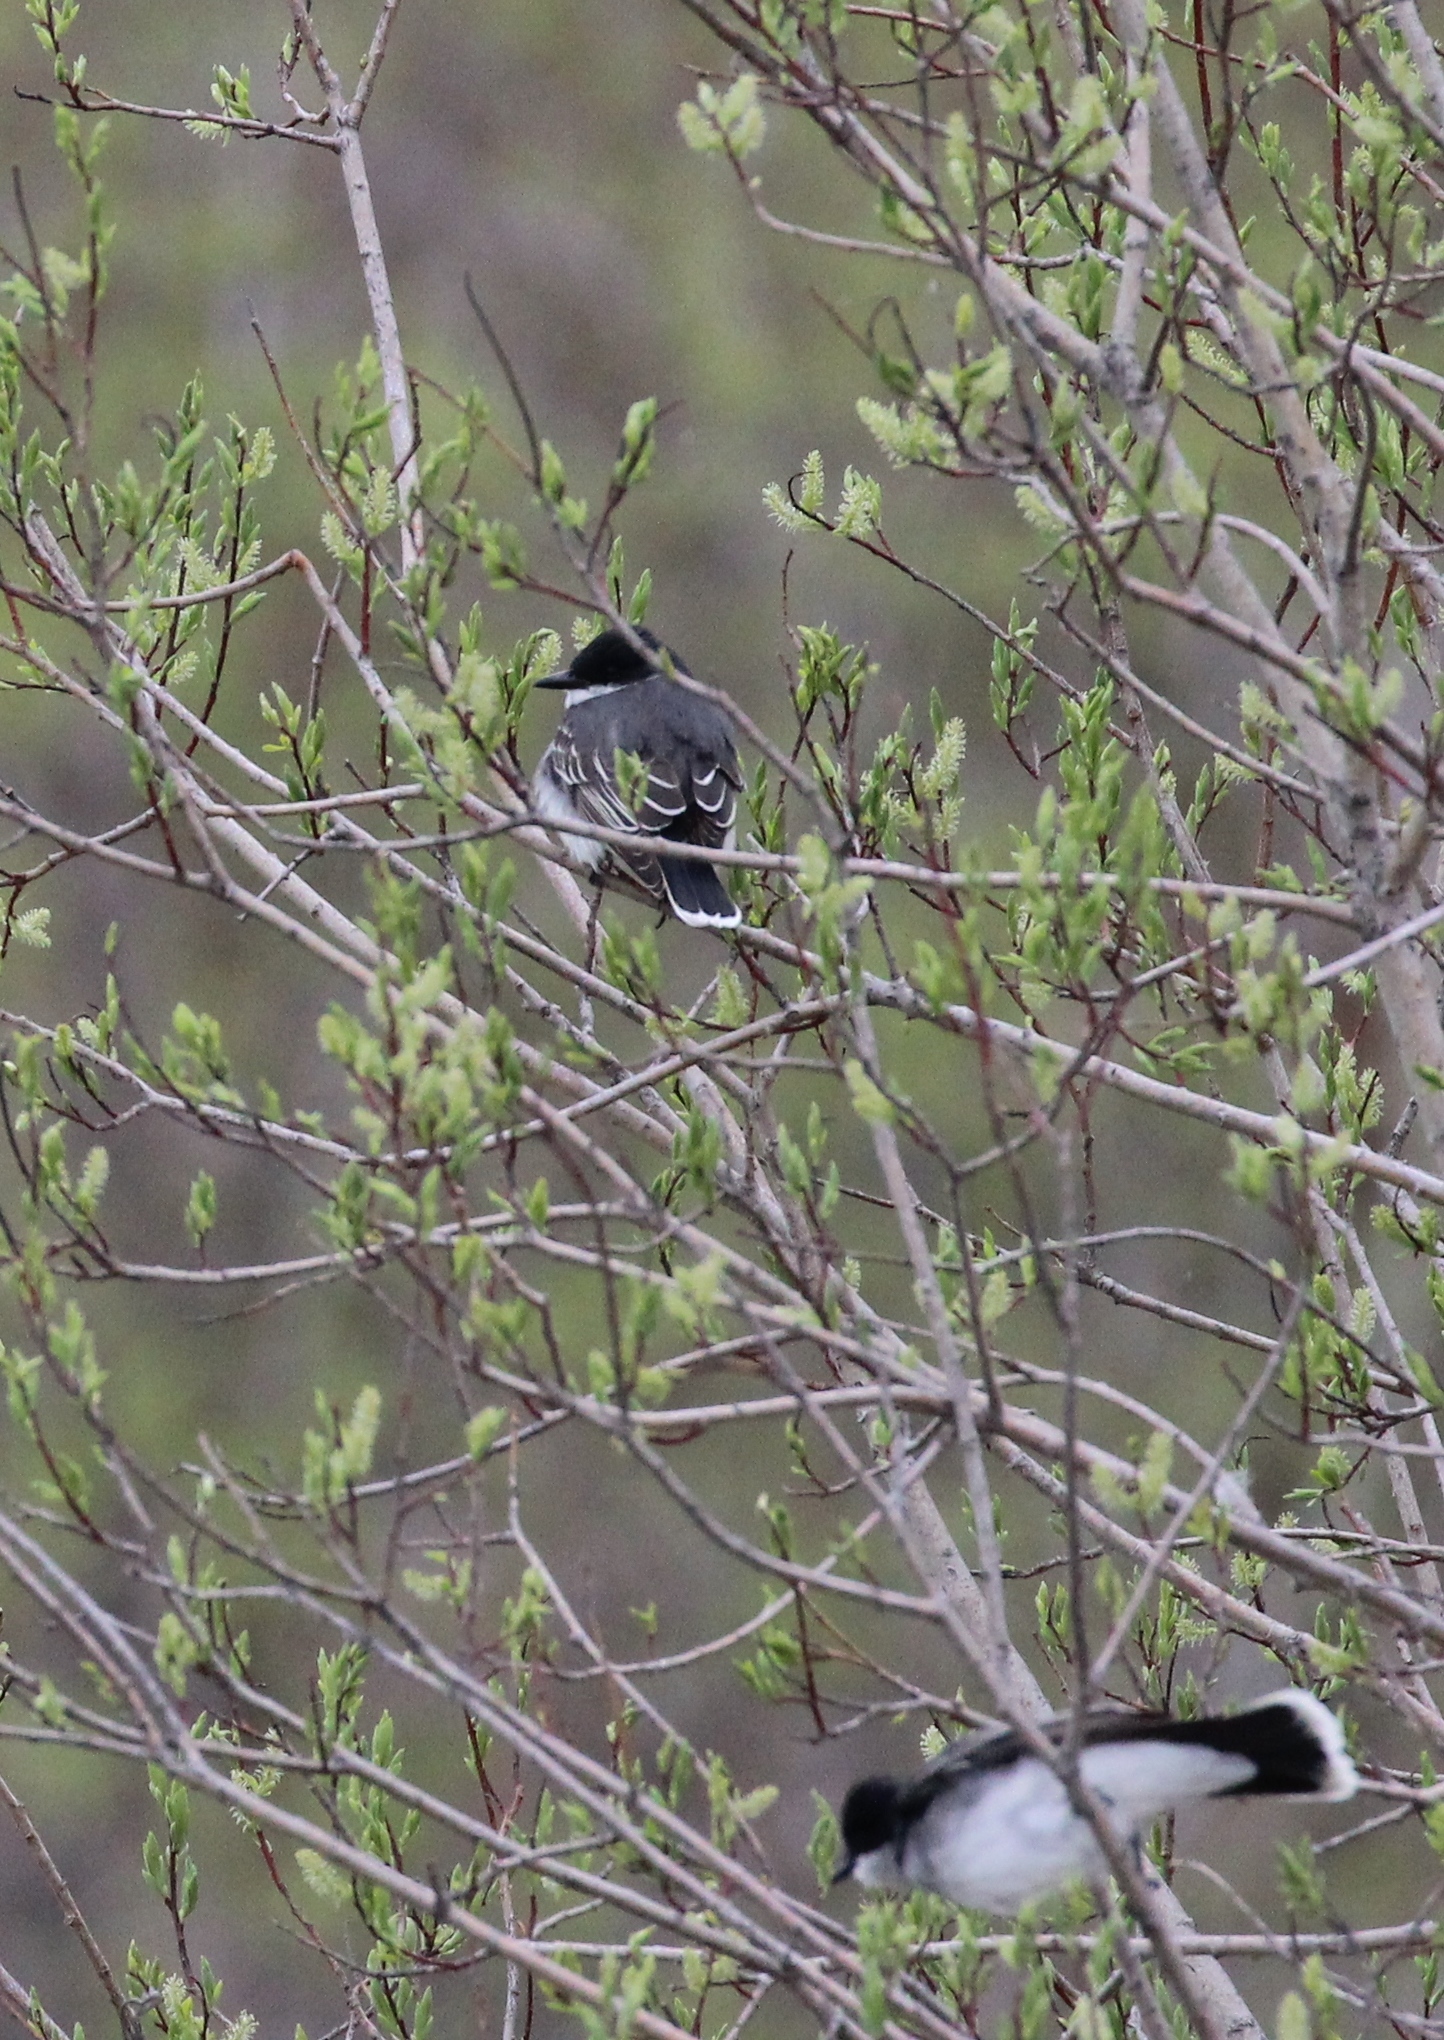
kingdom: Animalia
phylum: Chordata
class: Aves
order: Passeriformes
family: Tyrannidae
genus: Tyrannus
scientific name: Tyrannus tyrannus
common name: Eastern kingbird
